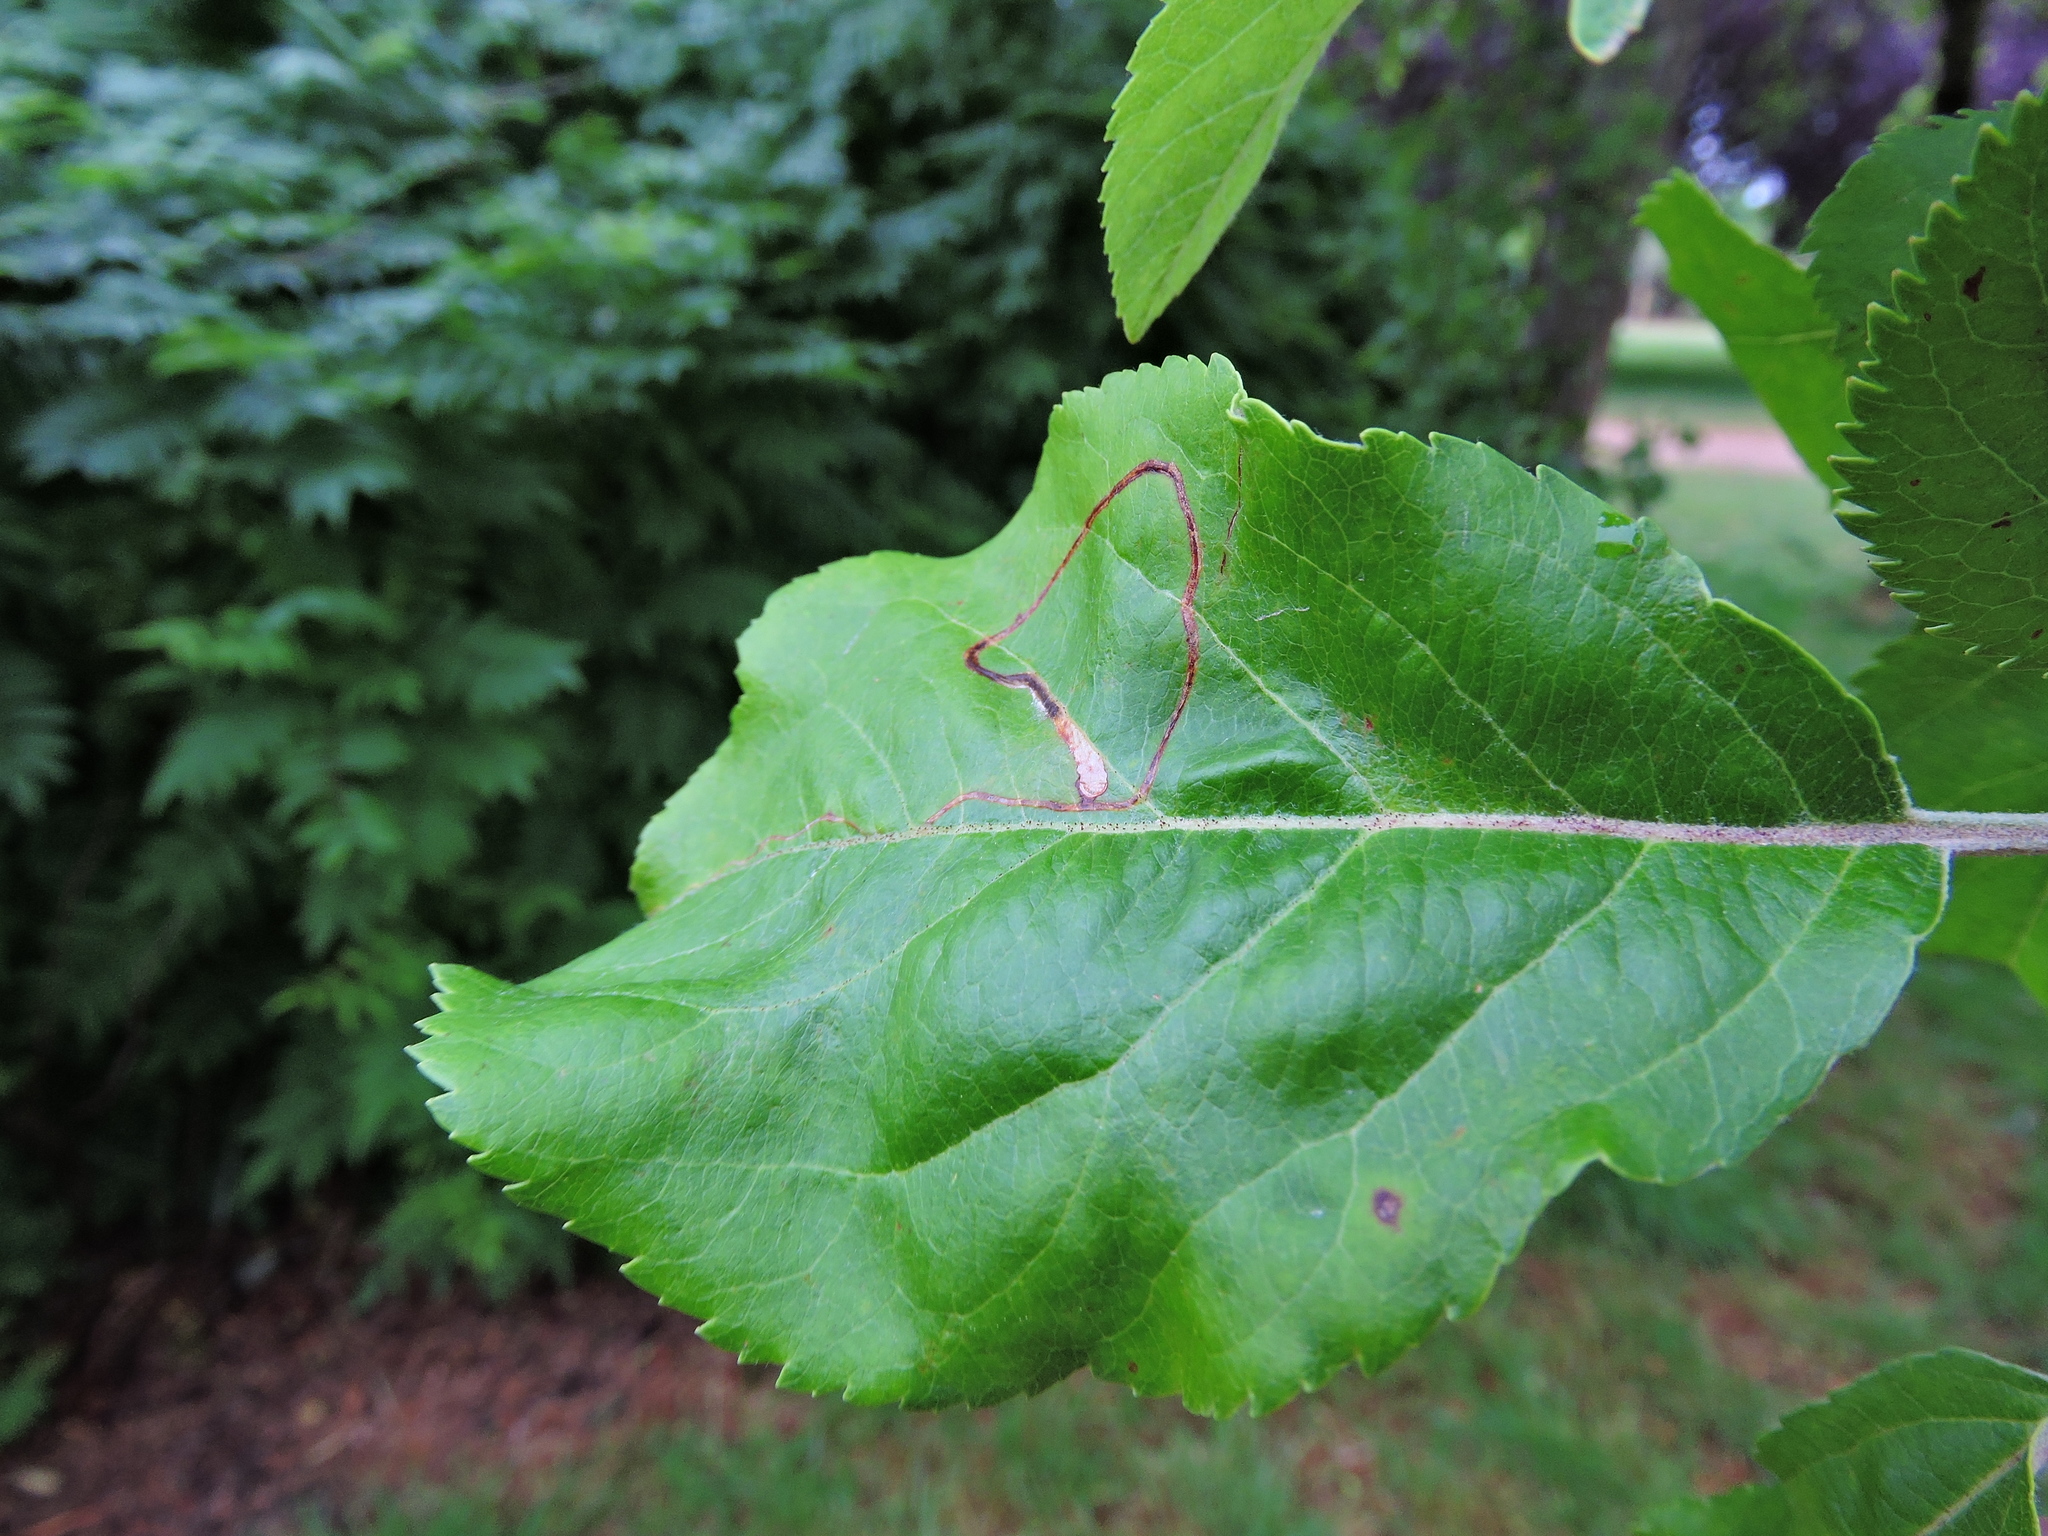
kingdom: Animalia
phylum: Arthropoda
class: Insecta
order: Lepidoptera
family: Lyonetiidae
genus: Lyonetia
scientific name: Lyonetia clerkella
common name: Apple leaf miner
